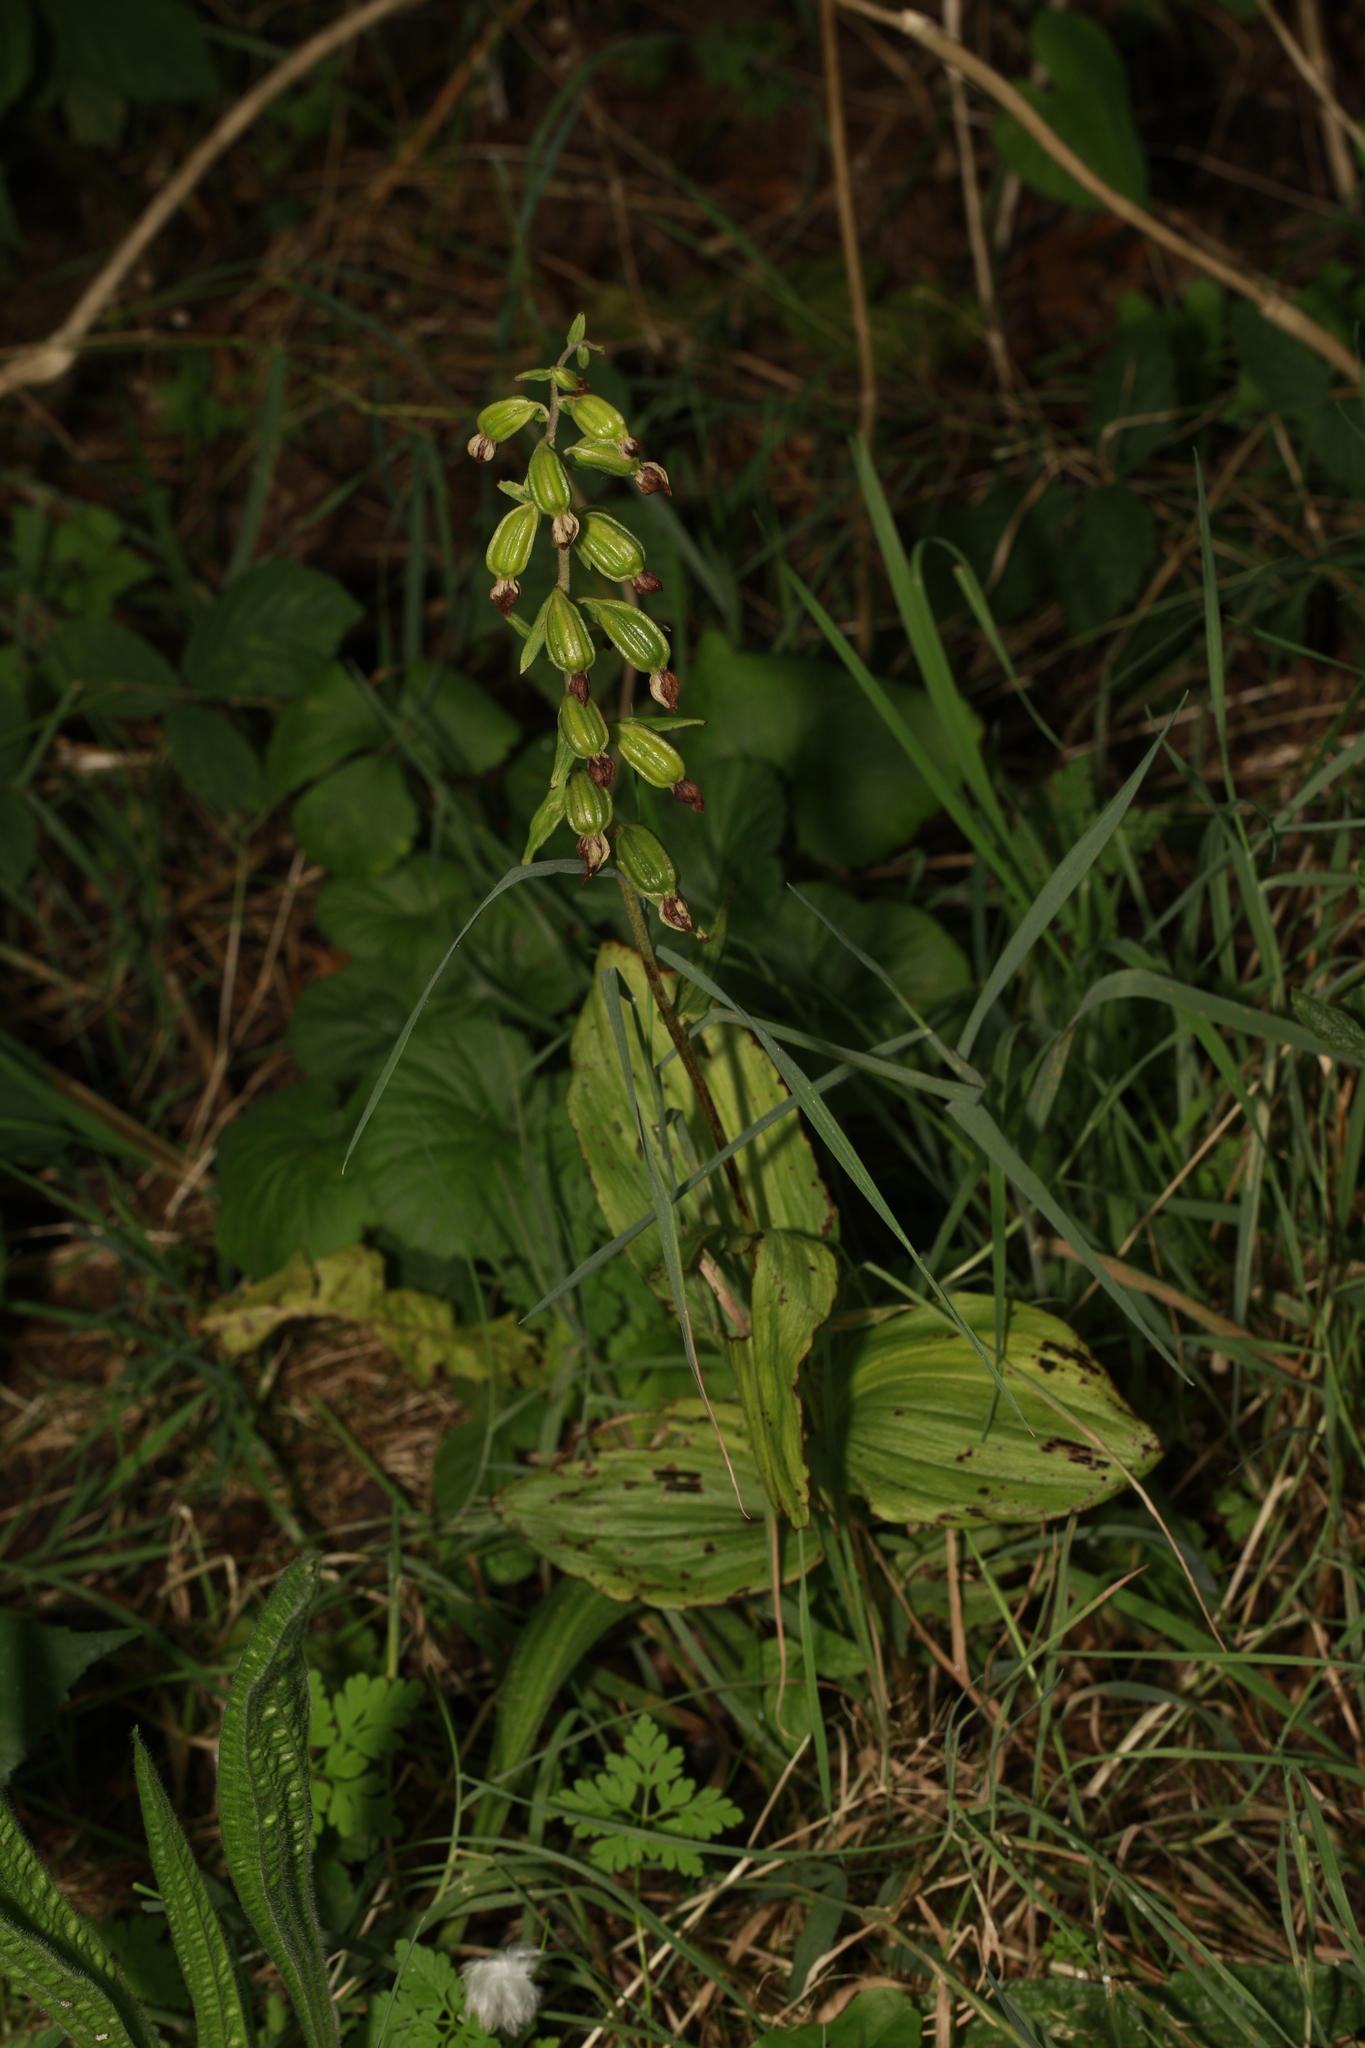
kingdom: Plantae
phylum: Tracheophyta
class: Liliopsida
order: Asparagales
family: Orchidaceae
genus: Epipactis
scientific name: Epipactis helleborine
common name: Broad-leaved helleborine
